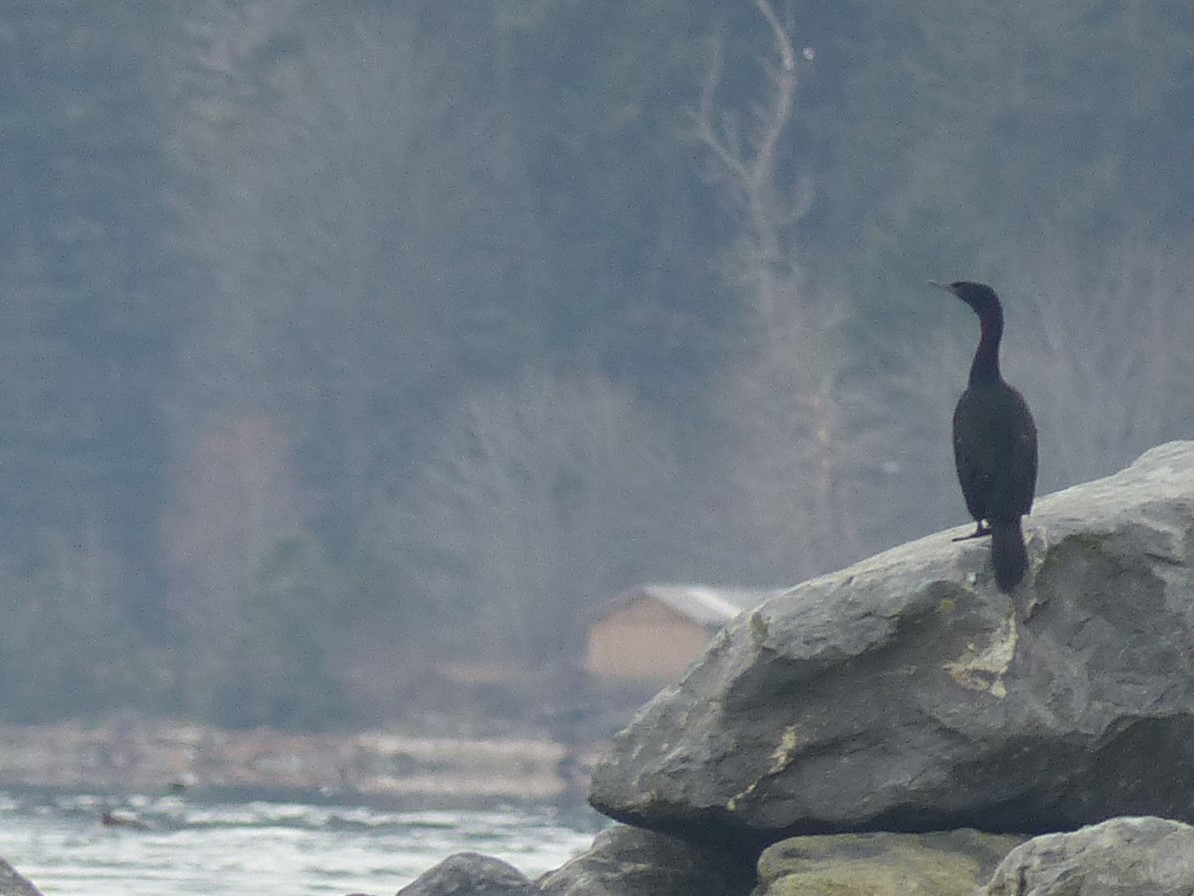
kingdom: Animalia
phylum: Chordata
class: Aves
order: Suliformes
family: Phalacrocoracidae
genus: Phalacrocorax
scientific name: Phalacrocorax pelagicus
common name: Pelagic cormorant
